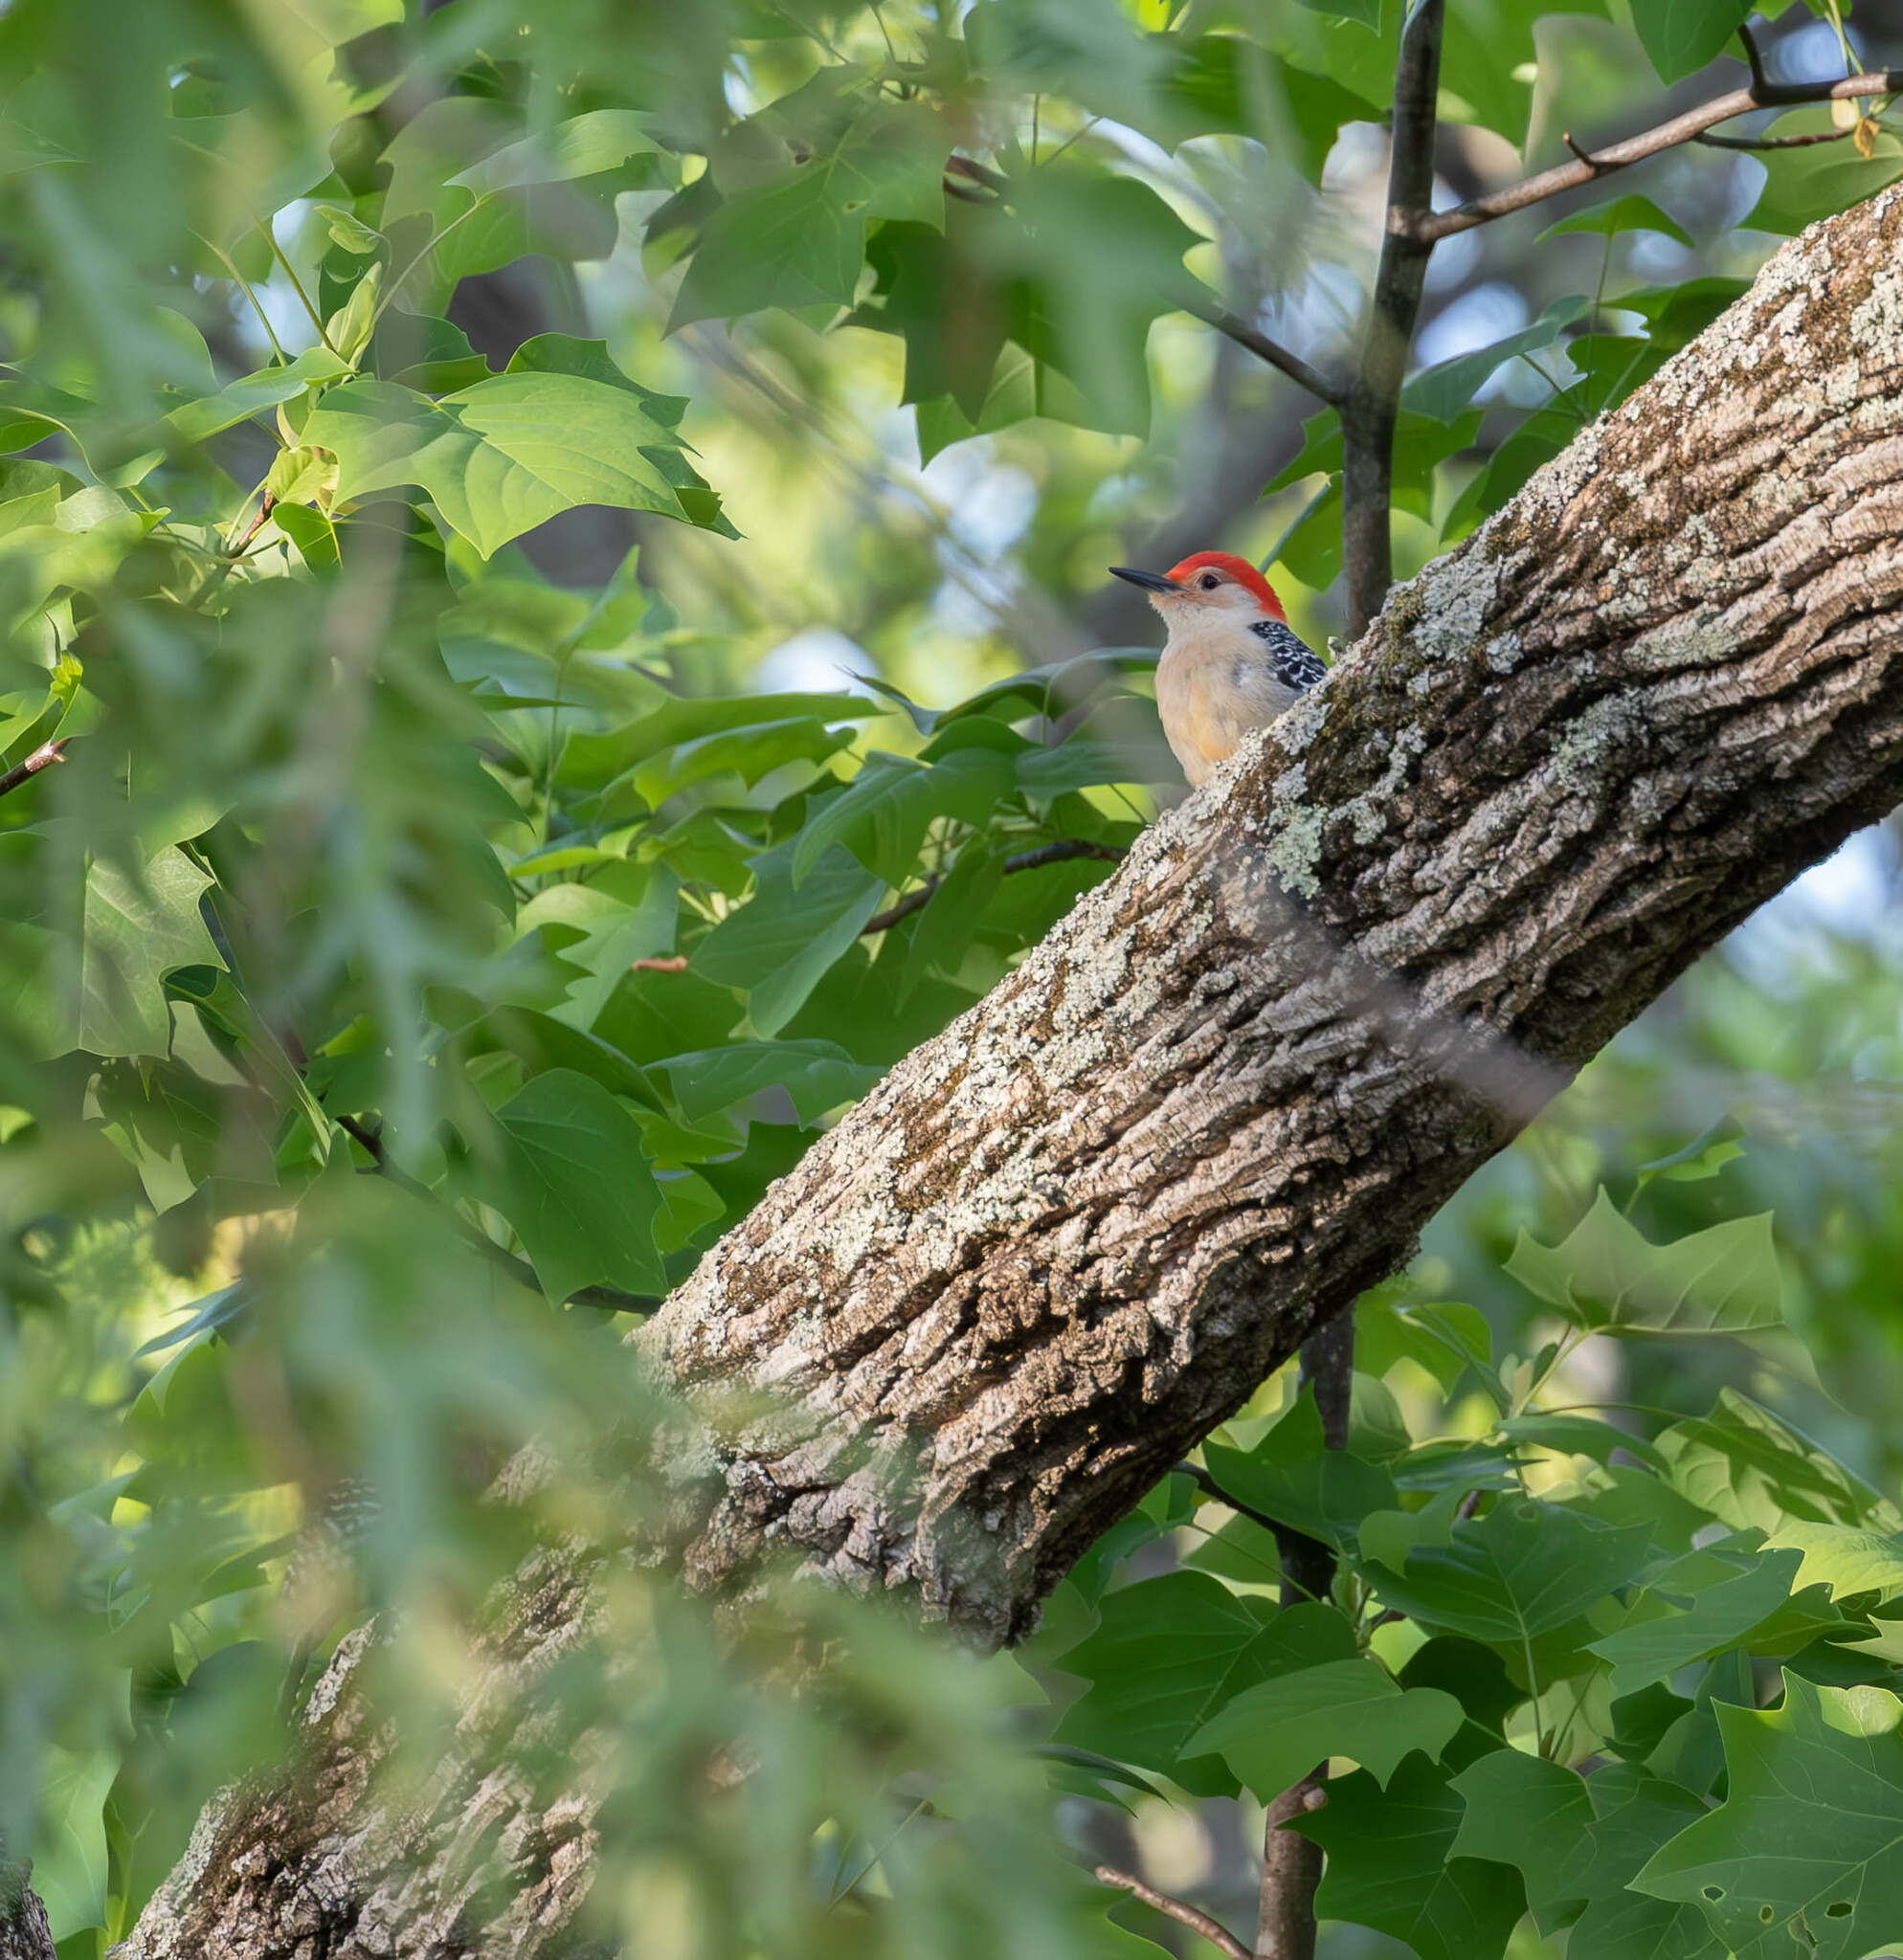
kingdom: Animalia
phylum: Chordata
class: Aves
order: Piciformes
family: Picidae
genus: Melanerpes
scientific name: Melanerpes carolinus
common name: Red-bellied woodpecker
